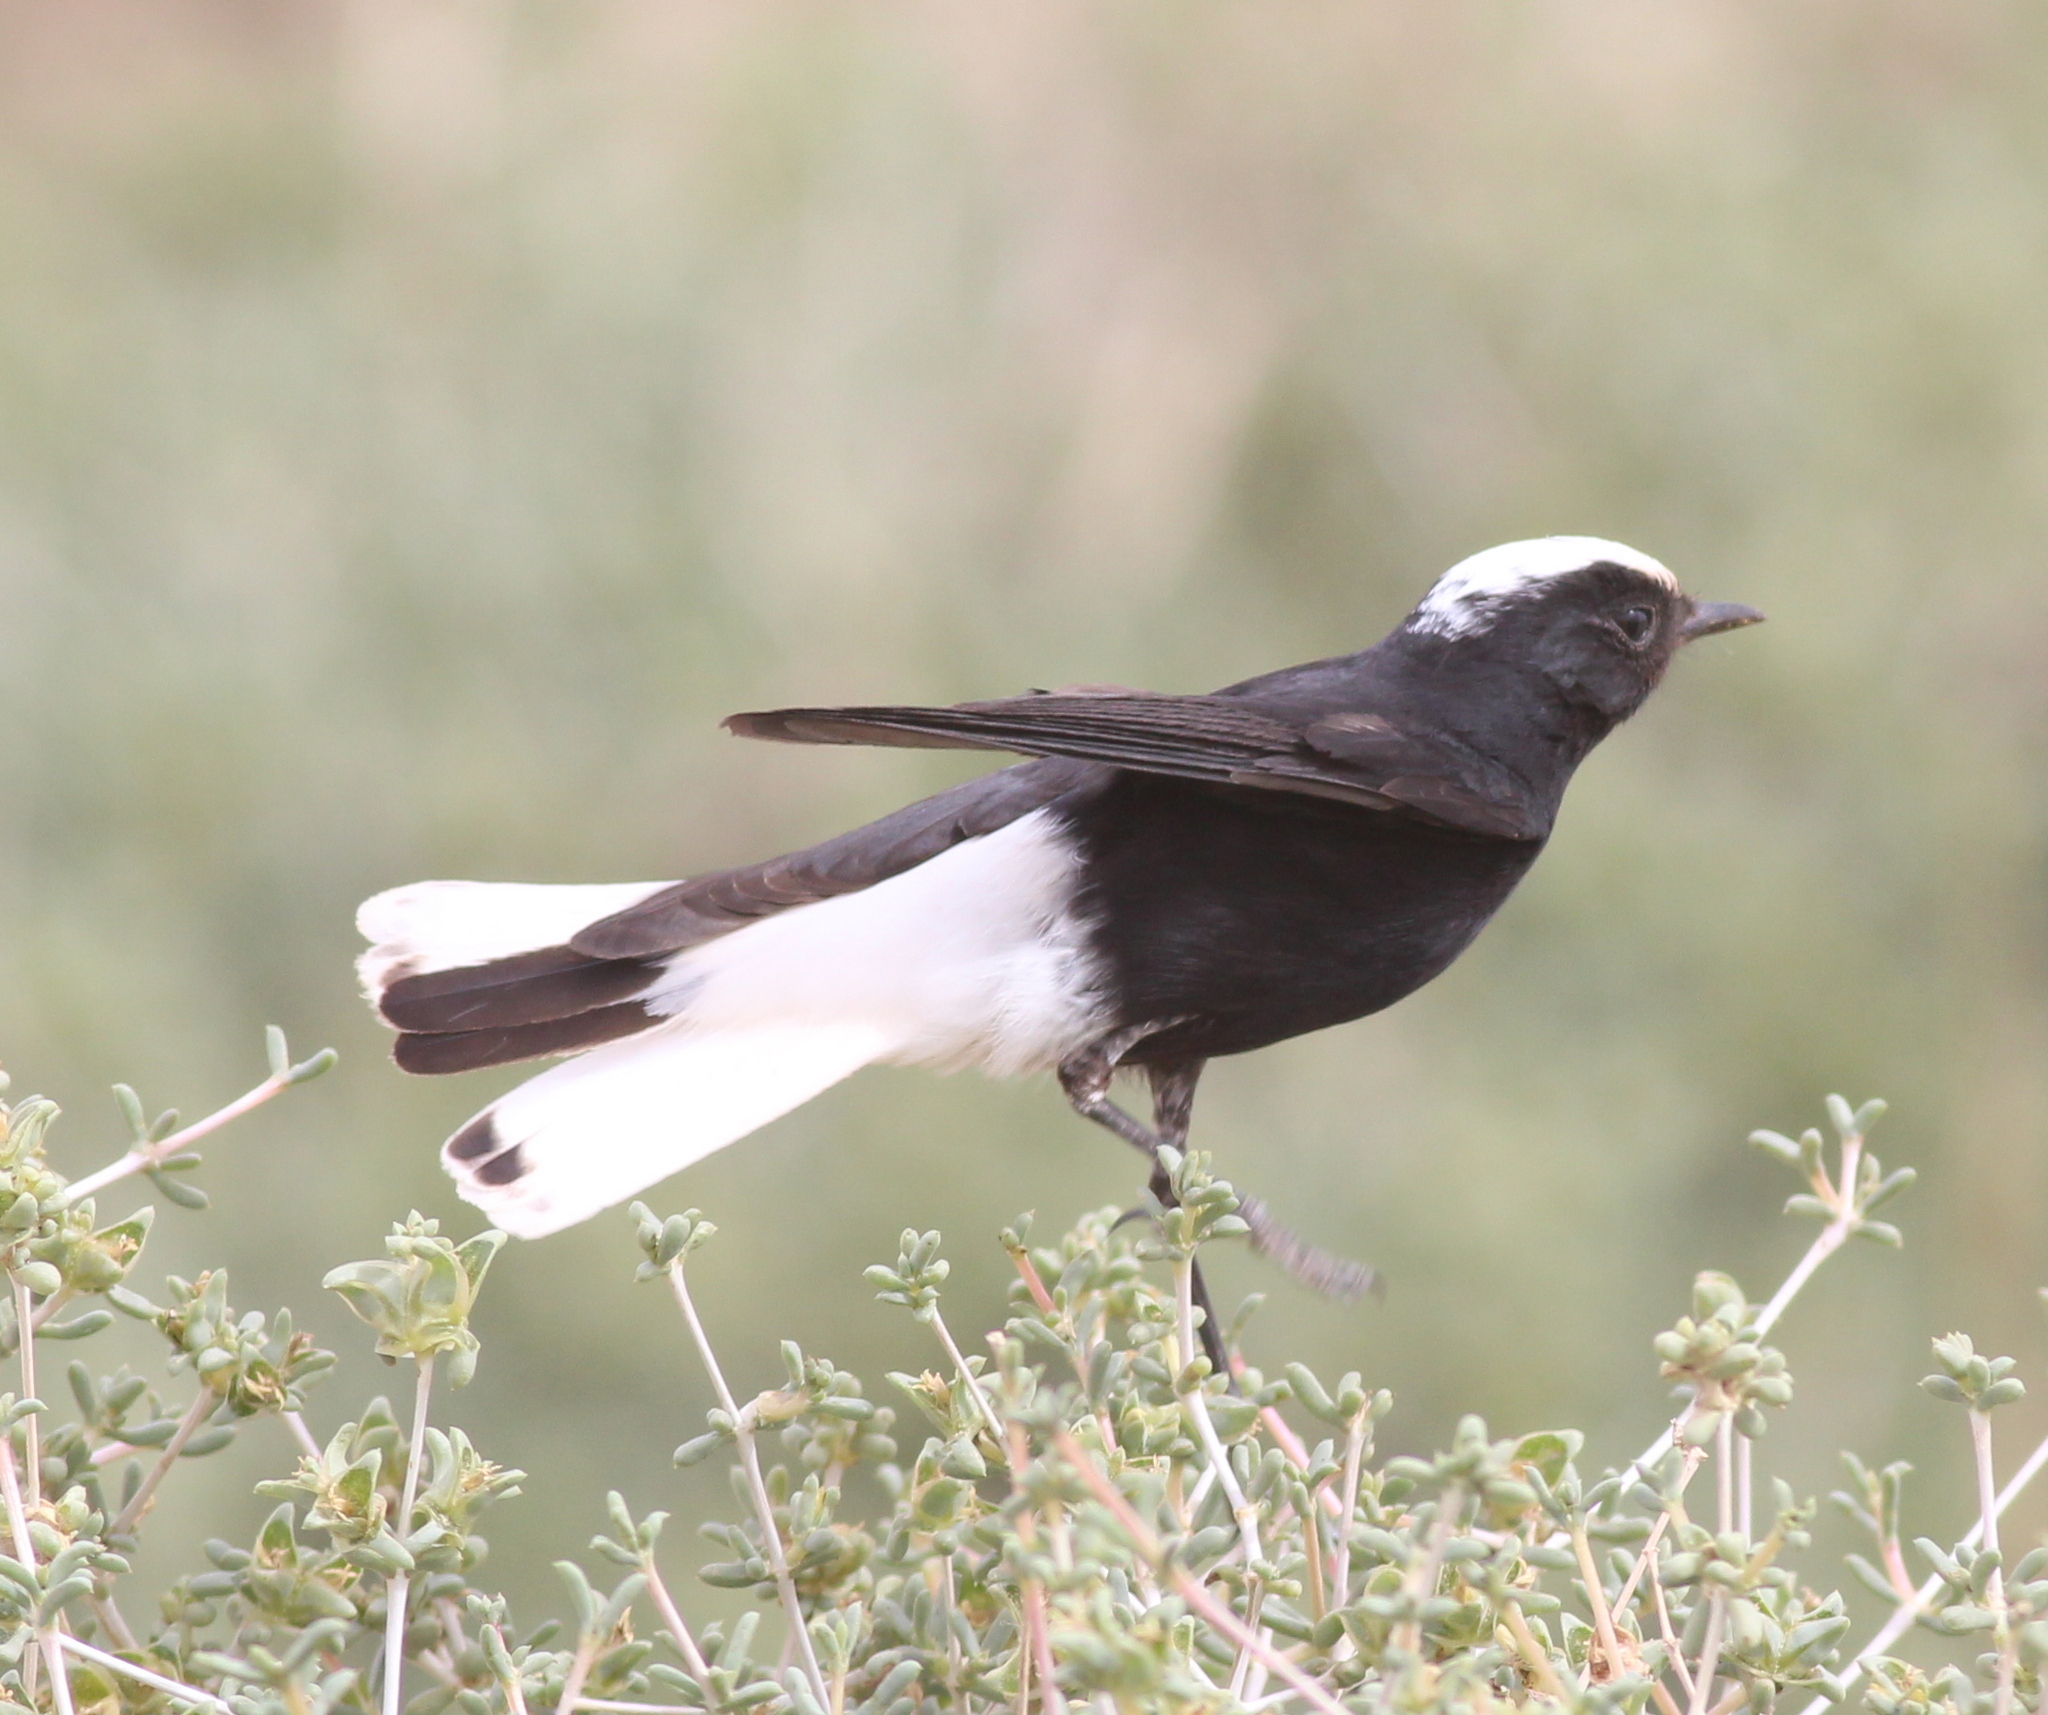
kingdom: Animalia
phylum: Chordata
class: Aves
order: Passeriformes
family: Muscicapidae
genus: Oenanthe
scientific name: Oenanthe leucopyga
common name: White-crowned wheatear
